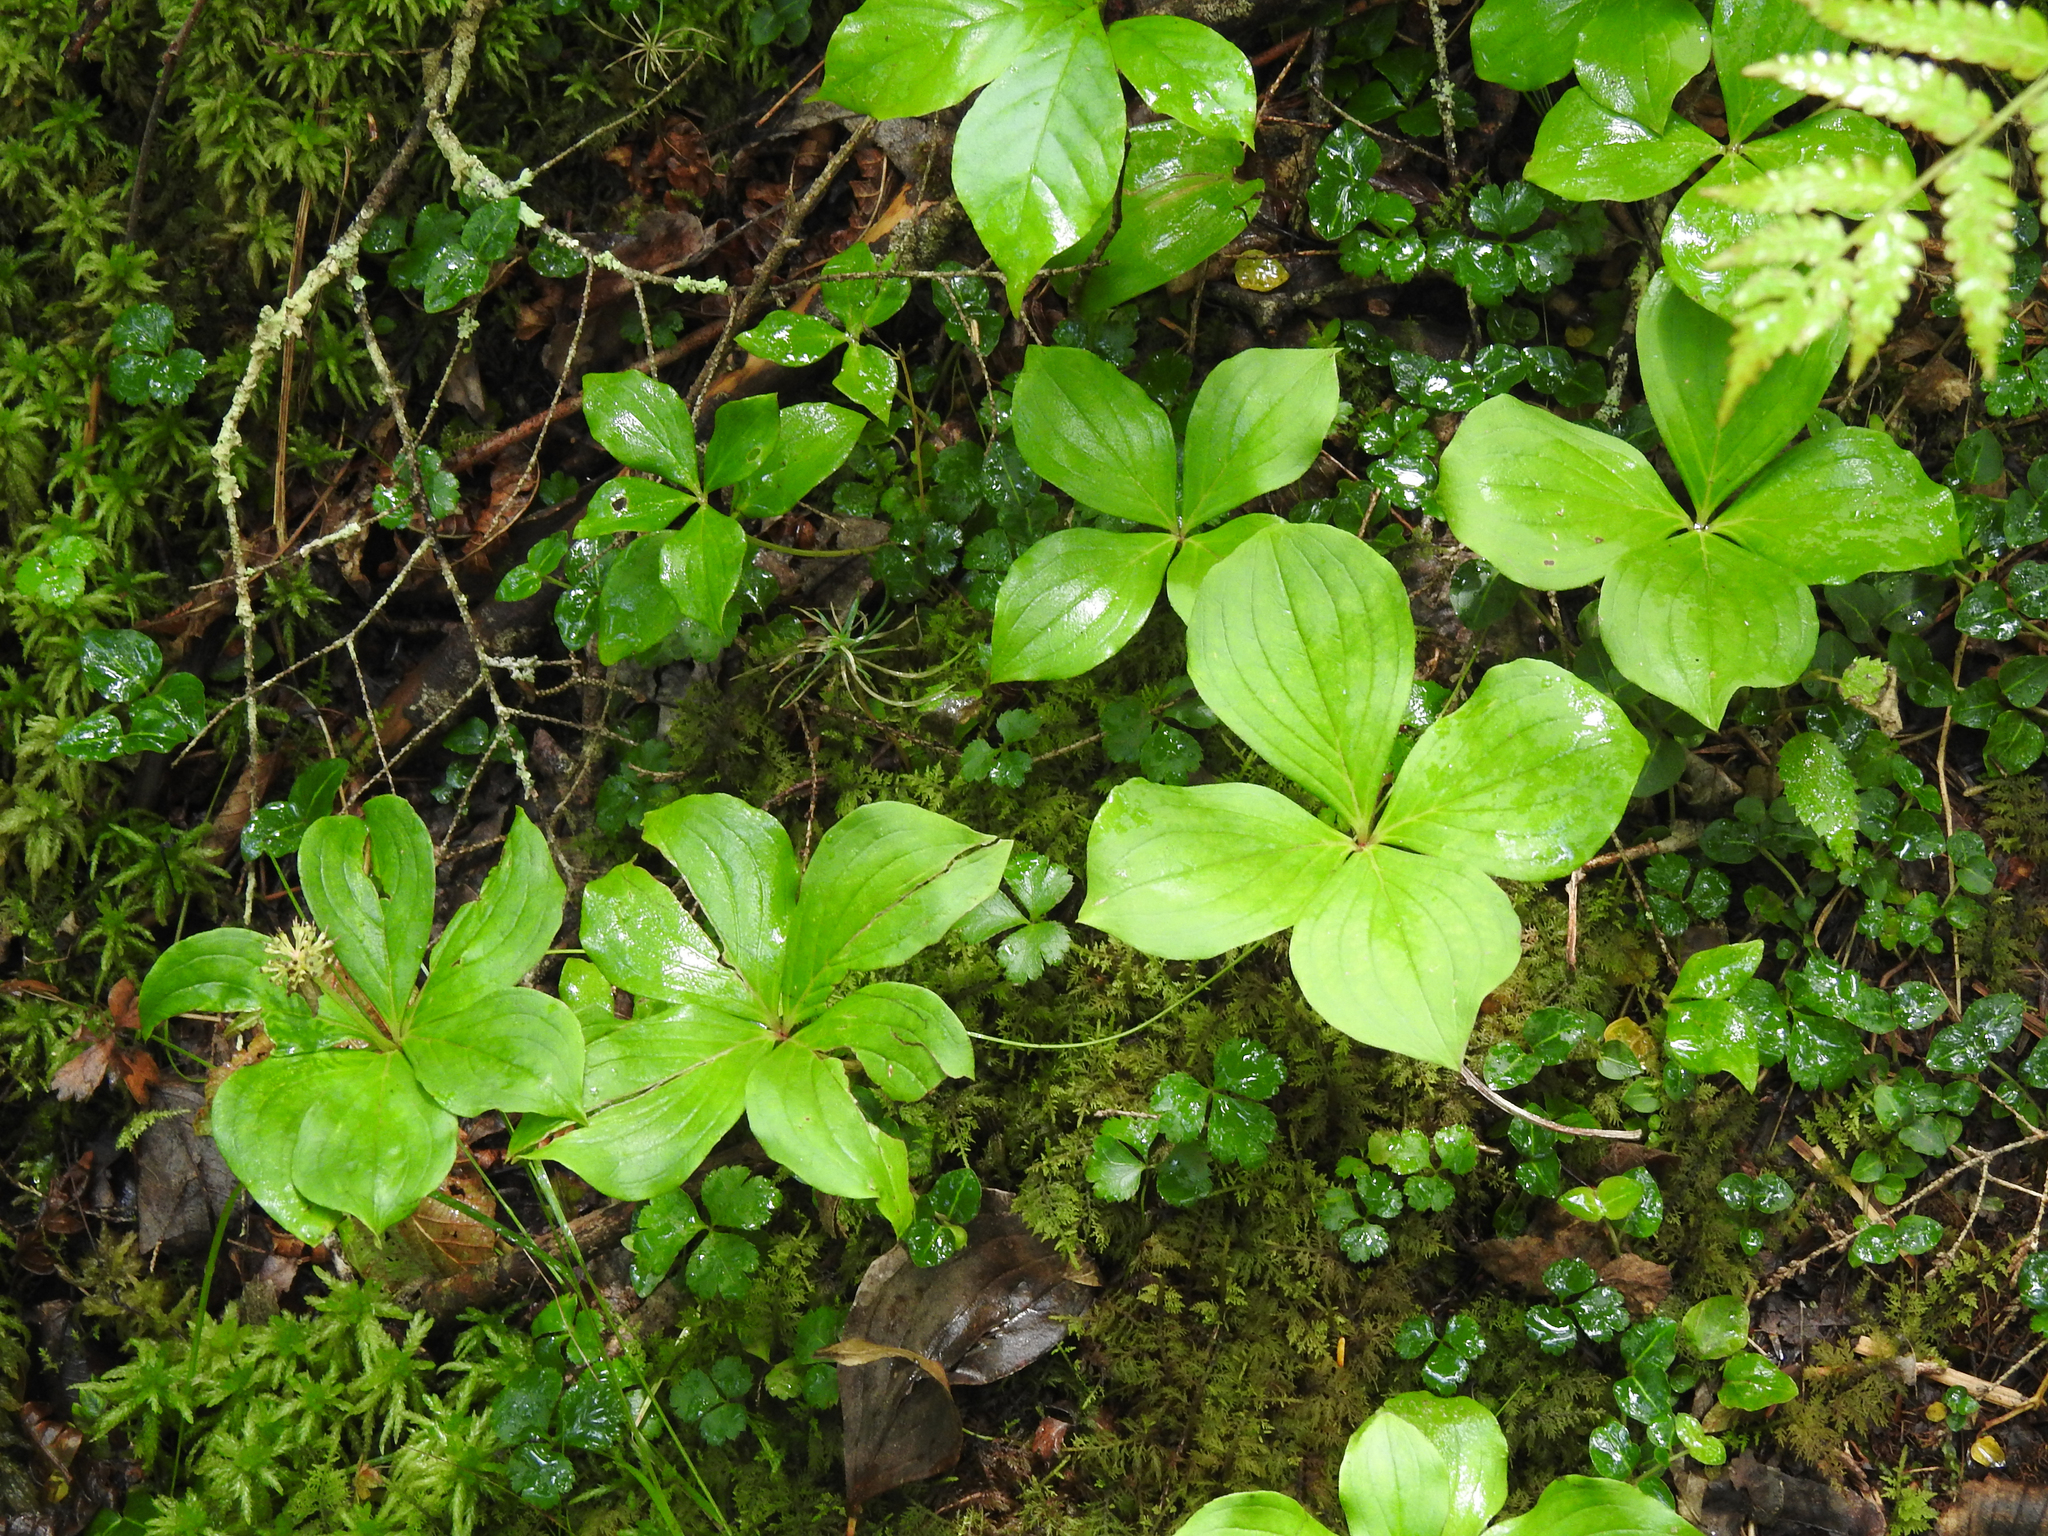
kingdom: Plantae
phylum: Tracheophyta
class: Magnoliopsida
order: Cornales
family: Cornaceae
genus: Cornus
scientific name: Cornus canadensis
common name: Creeping dogwood
